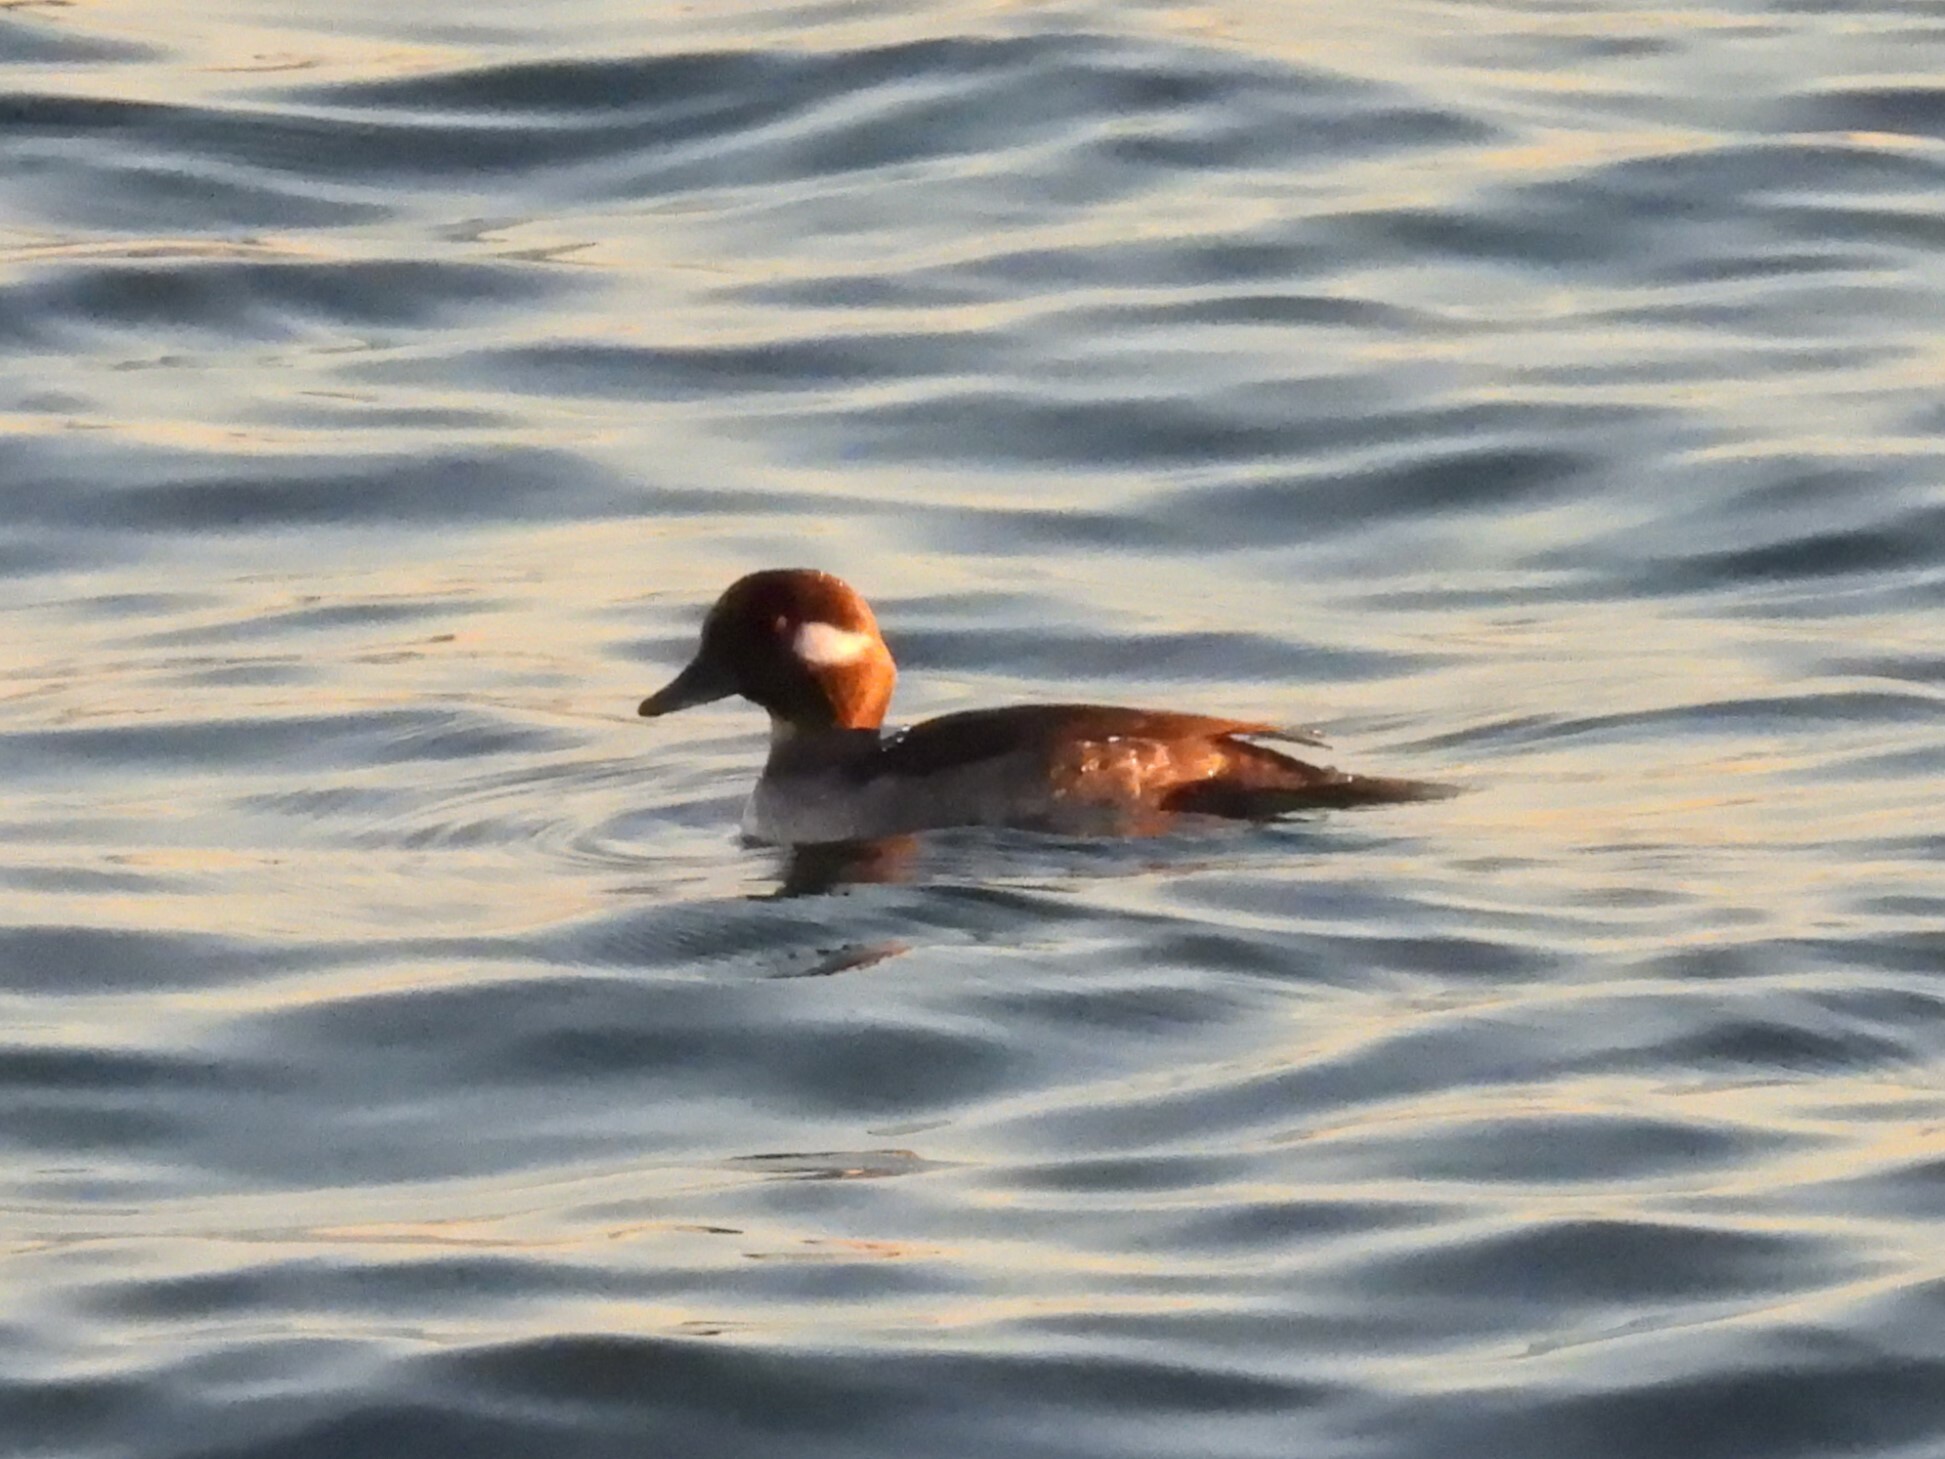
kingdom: Animalia
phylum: Chordata
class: Aves
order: Anseriformes
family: Anatidae
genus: Bucephala
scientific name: Bucephala albeola
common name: Bufflehead
